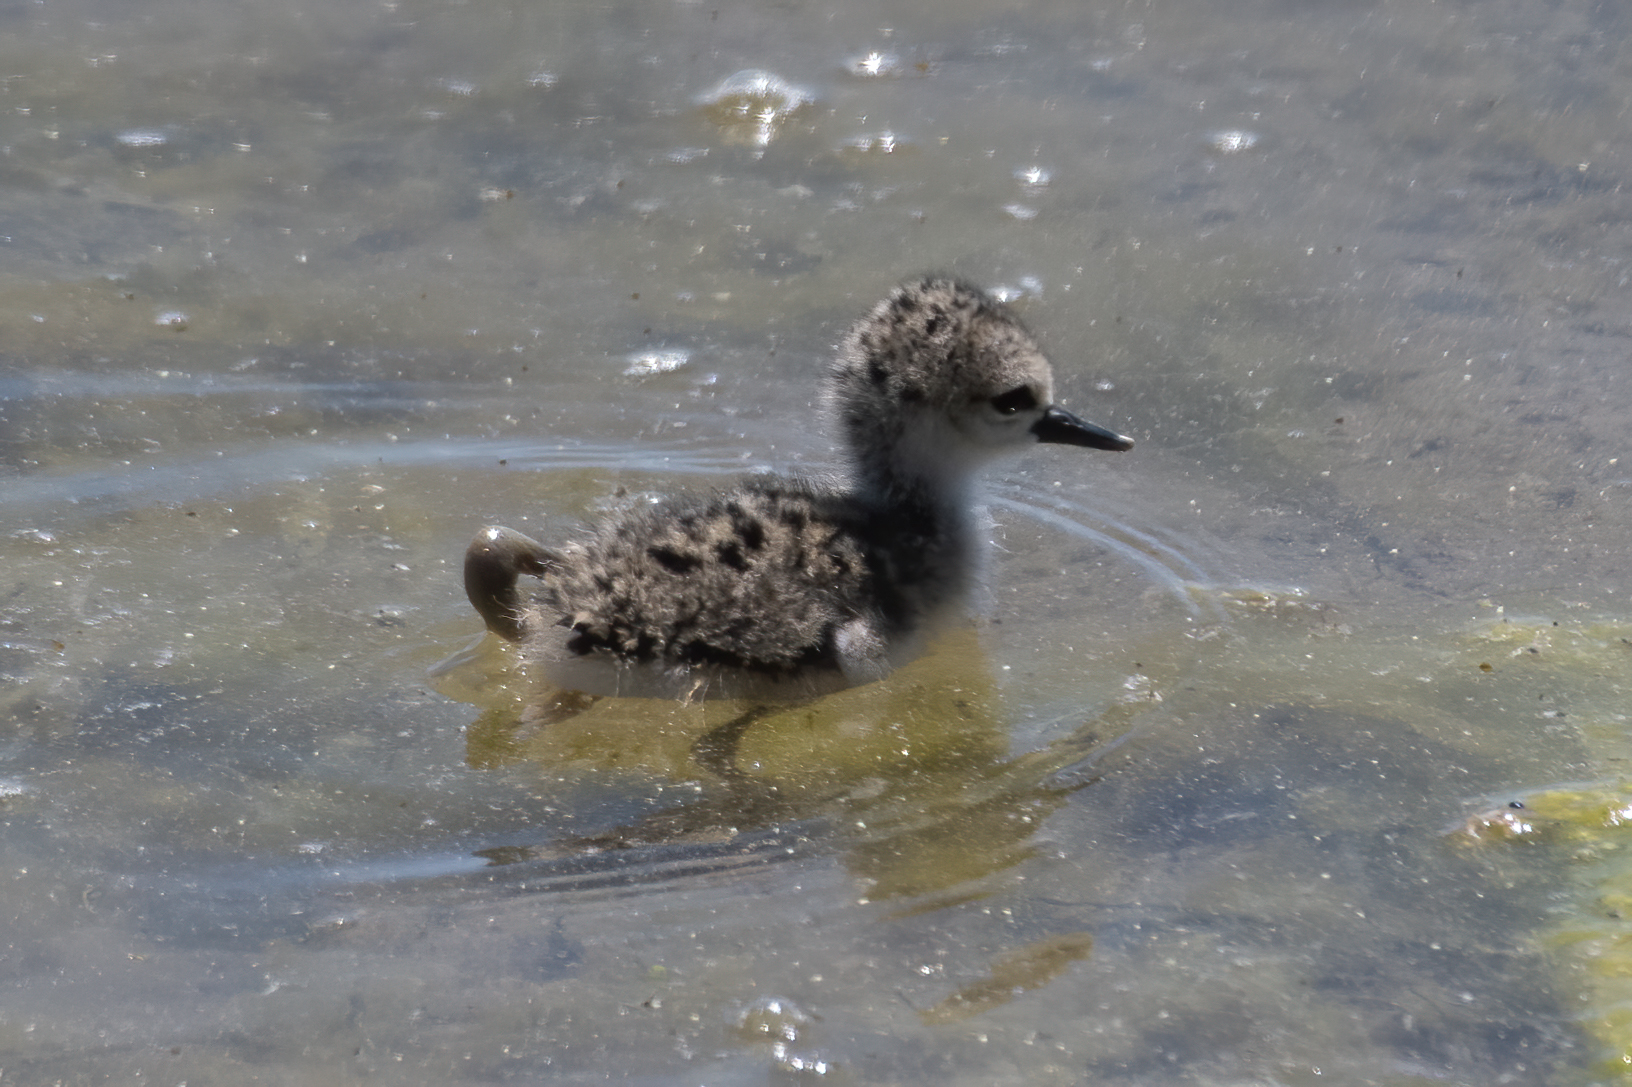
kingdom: Animalia
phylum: Chordata
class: Aves
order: Charadriiformes
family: Recurvirostridae
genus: Himantopus
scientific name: Himantopus mexicanus
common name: Black-necked stilt
